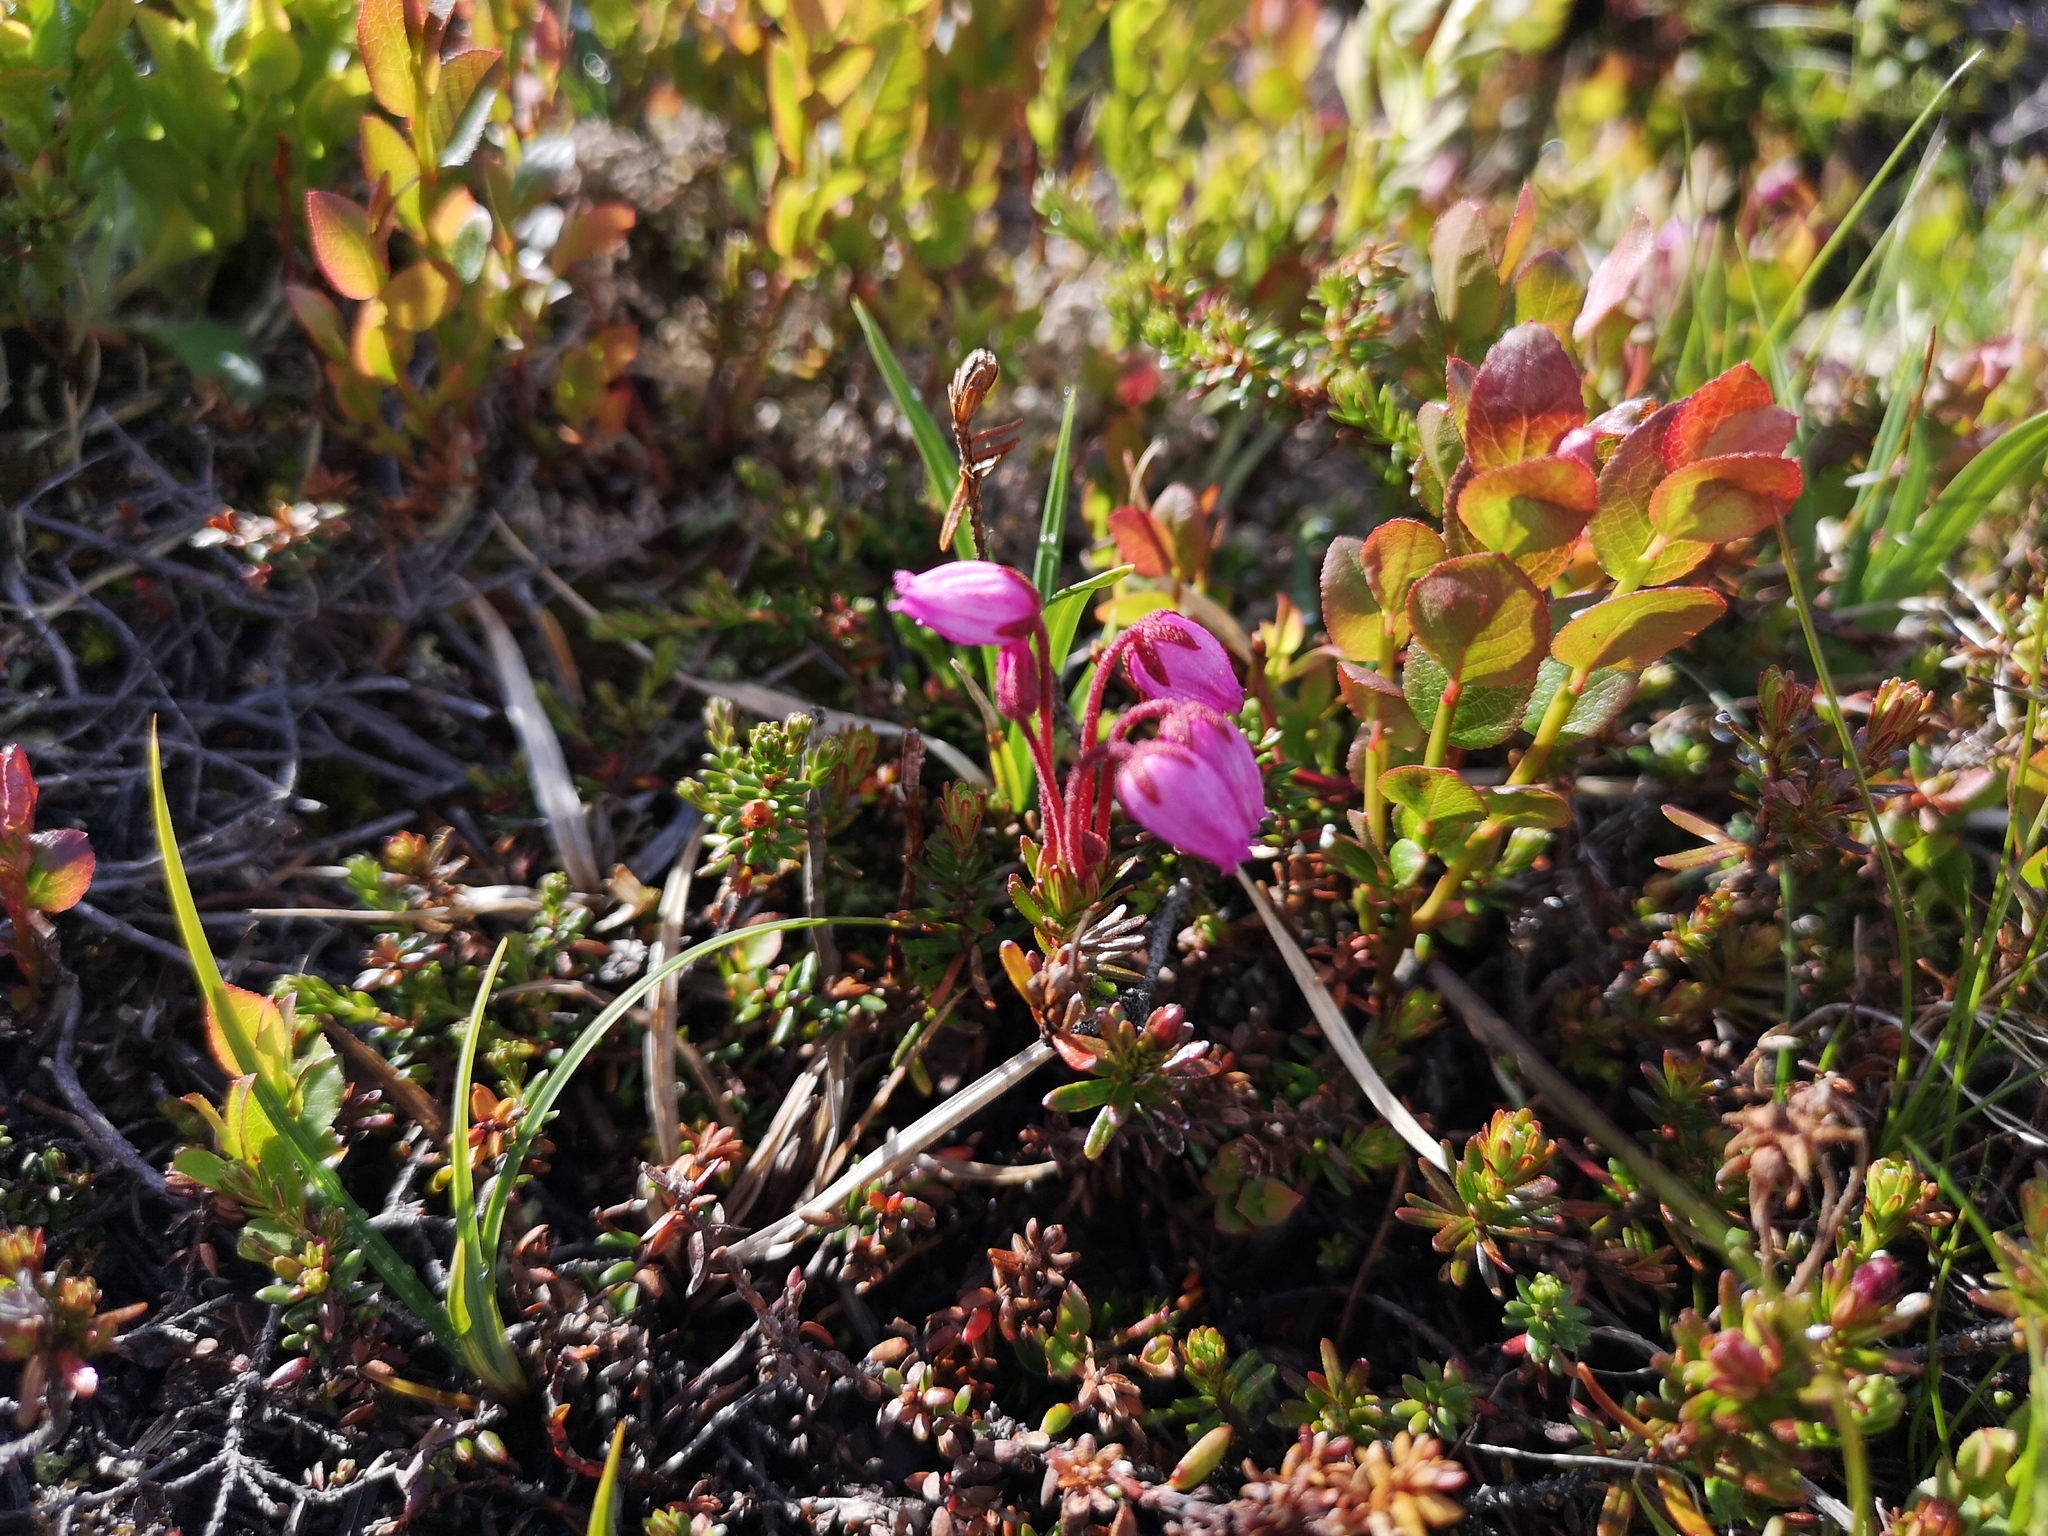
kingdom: Plantae
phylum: Tracheophyta
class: Magnoliopsida
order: Ericales
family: Ericaceae
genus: Phyllodoce
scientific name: Phyllodoce caerulea
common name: Blue heath
